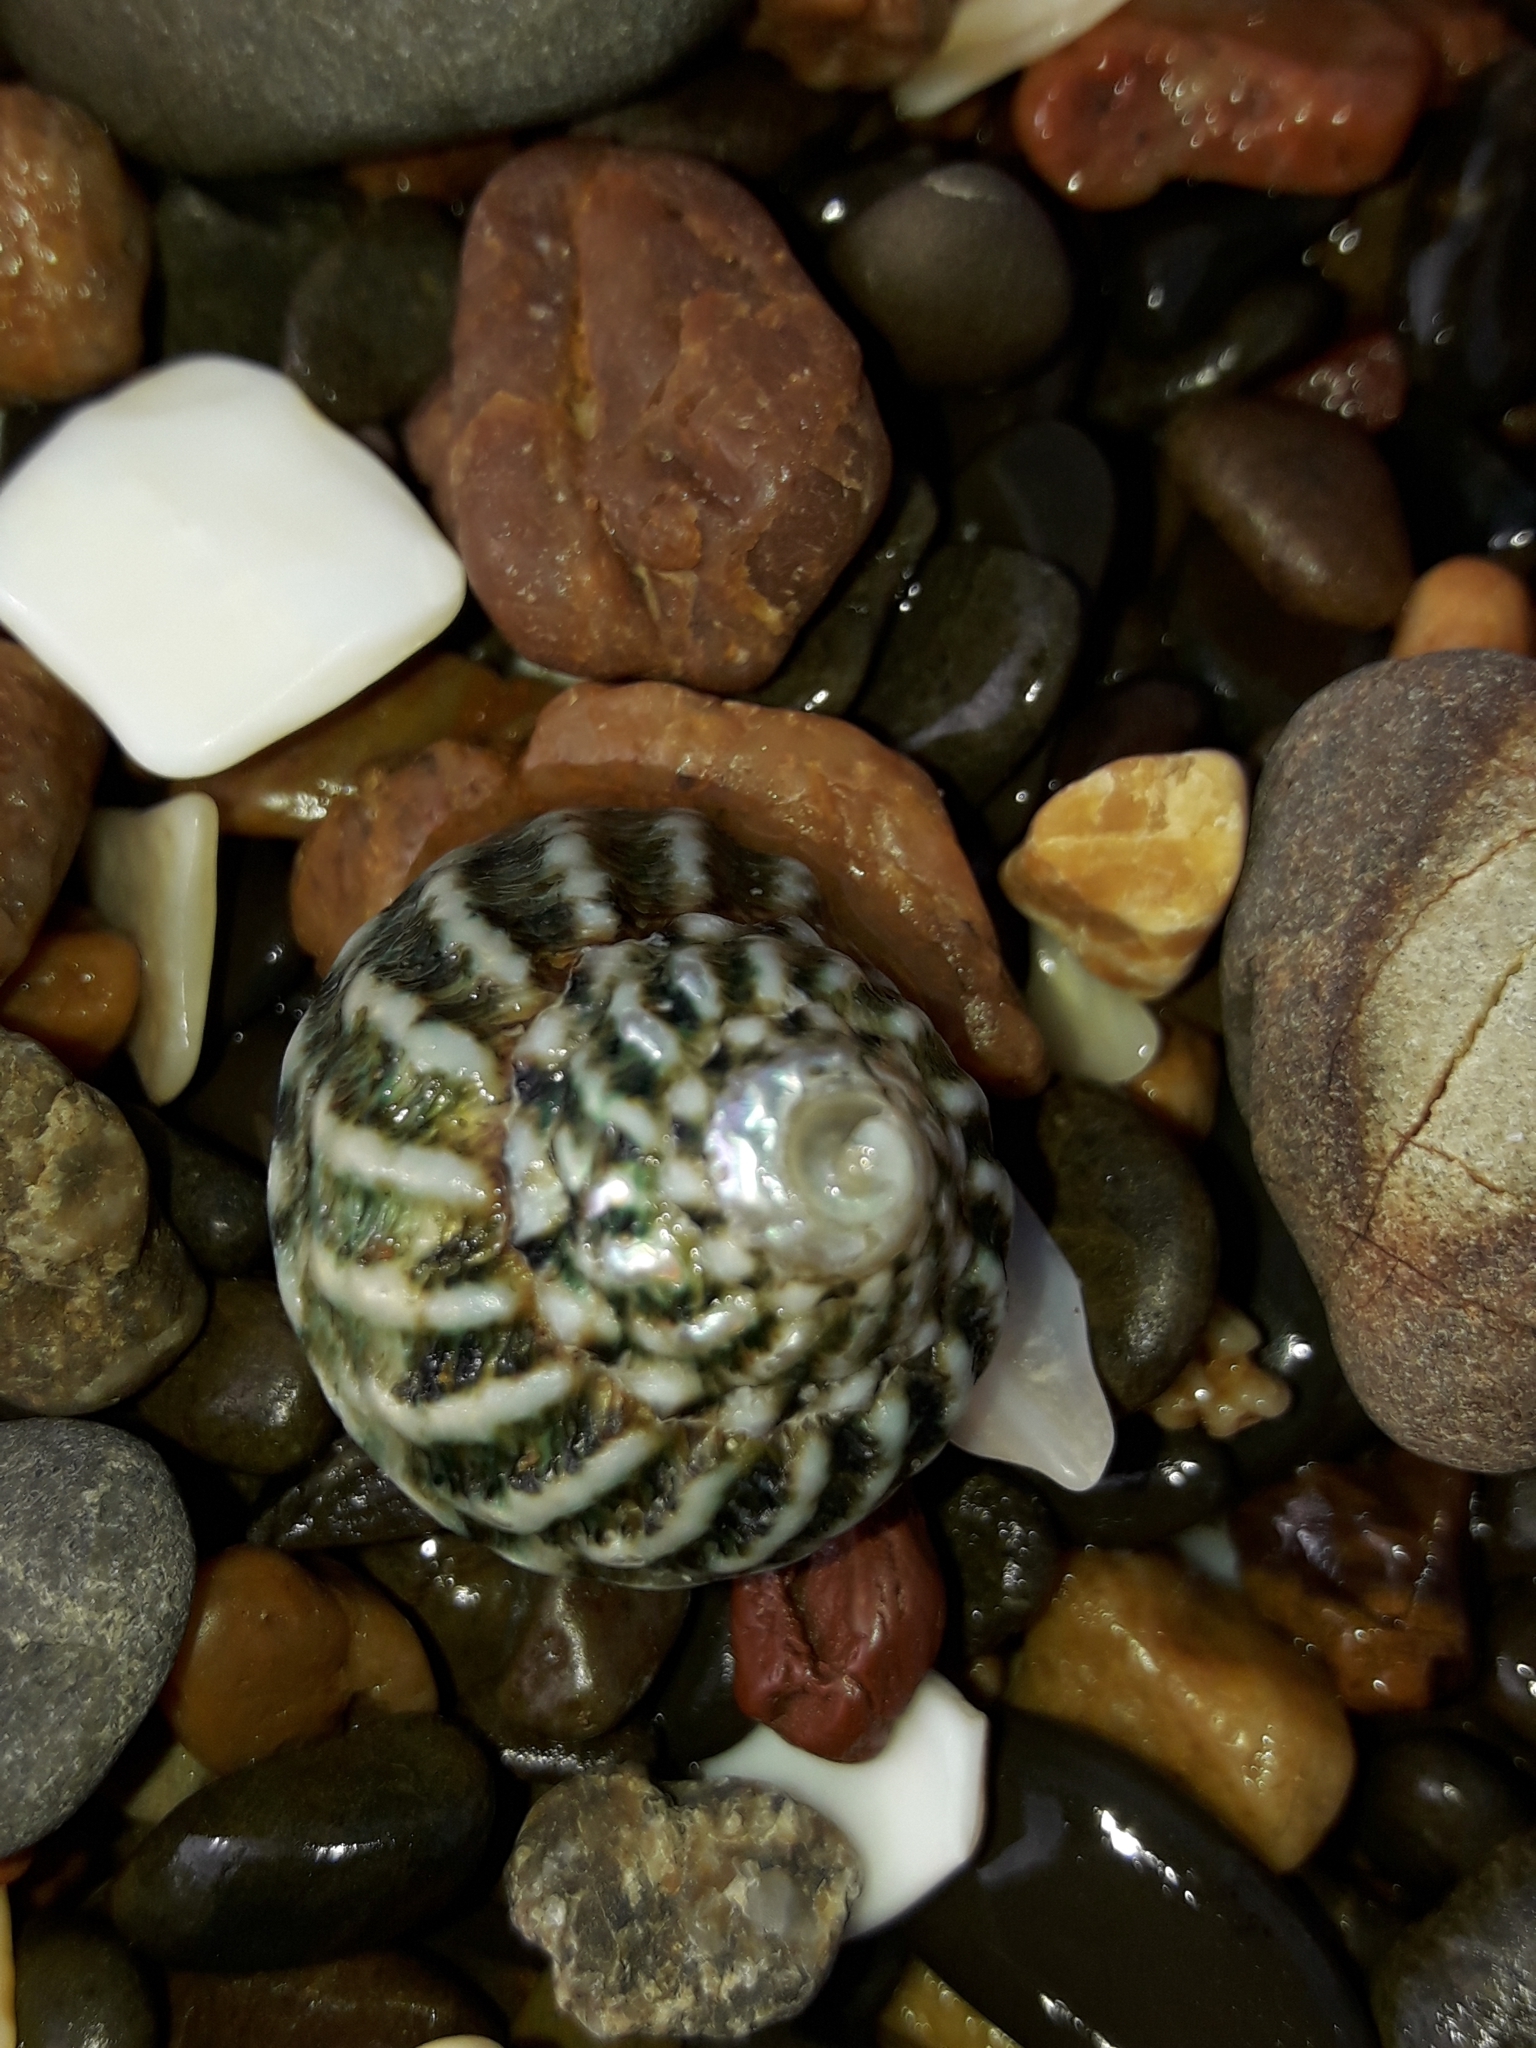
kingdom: Animalia
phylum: Mollusca
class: Gastropoda
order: Trochida
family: Turbinidae
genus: Cookia
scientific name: Cookia sulcata
